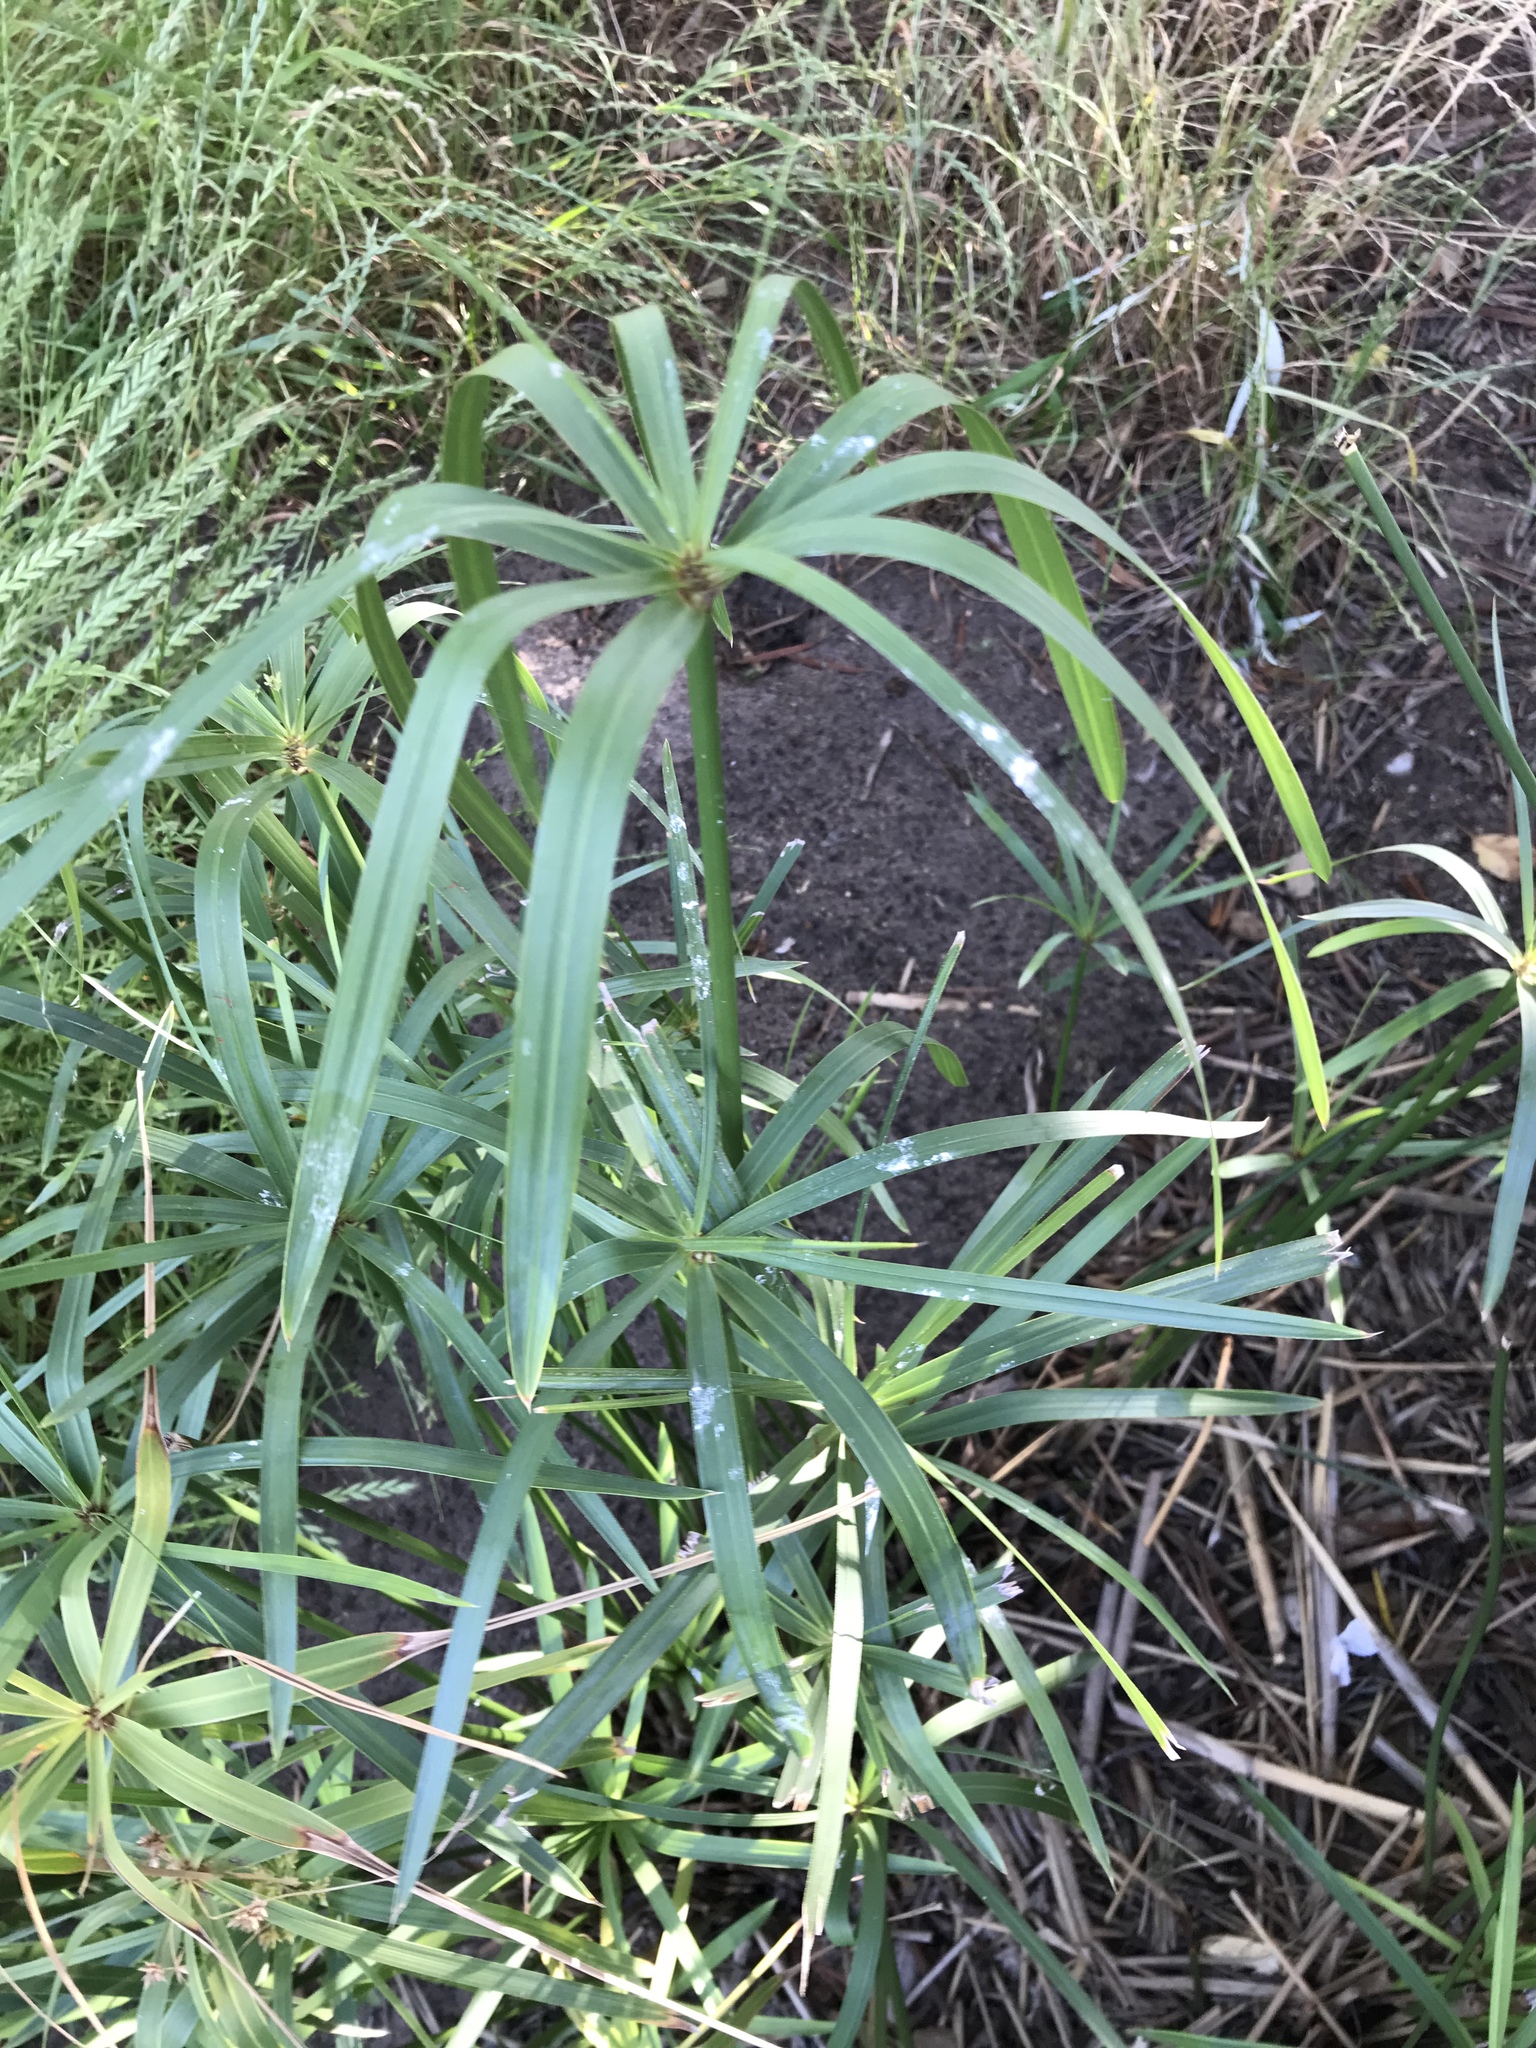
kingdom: Plantae
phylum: Tracheophyta
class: Liliopsida
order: Poales
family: Cyperaceae
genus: Cyperus
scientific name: Cyperus textilis
